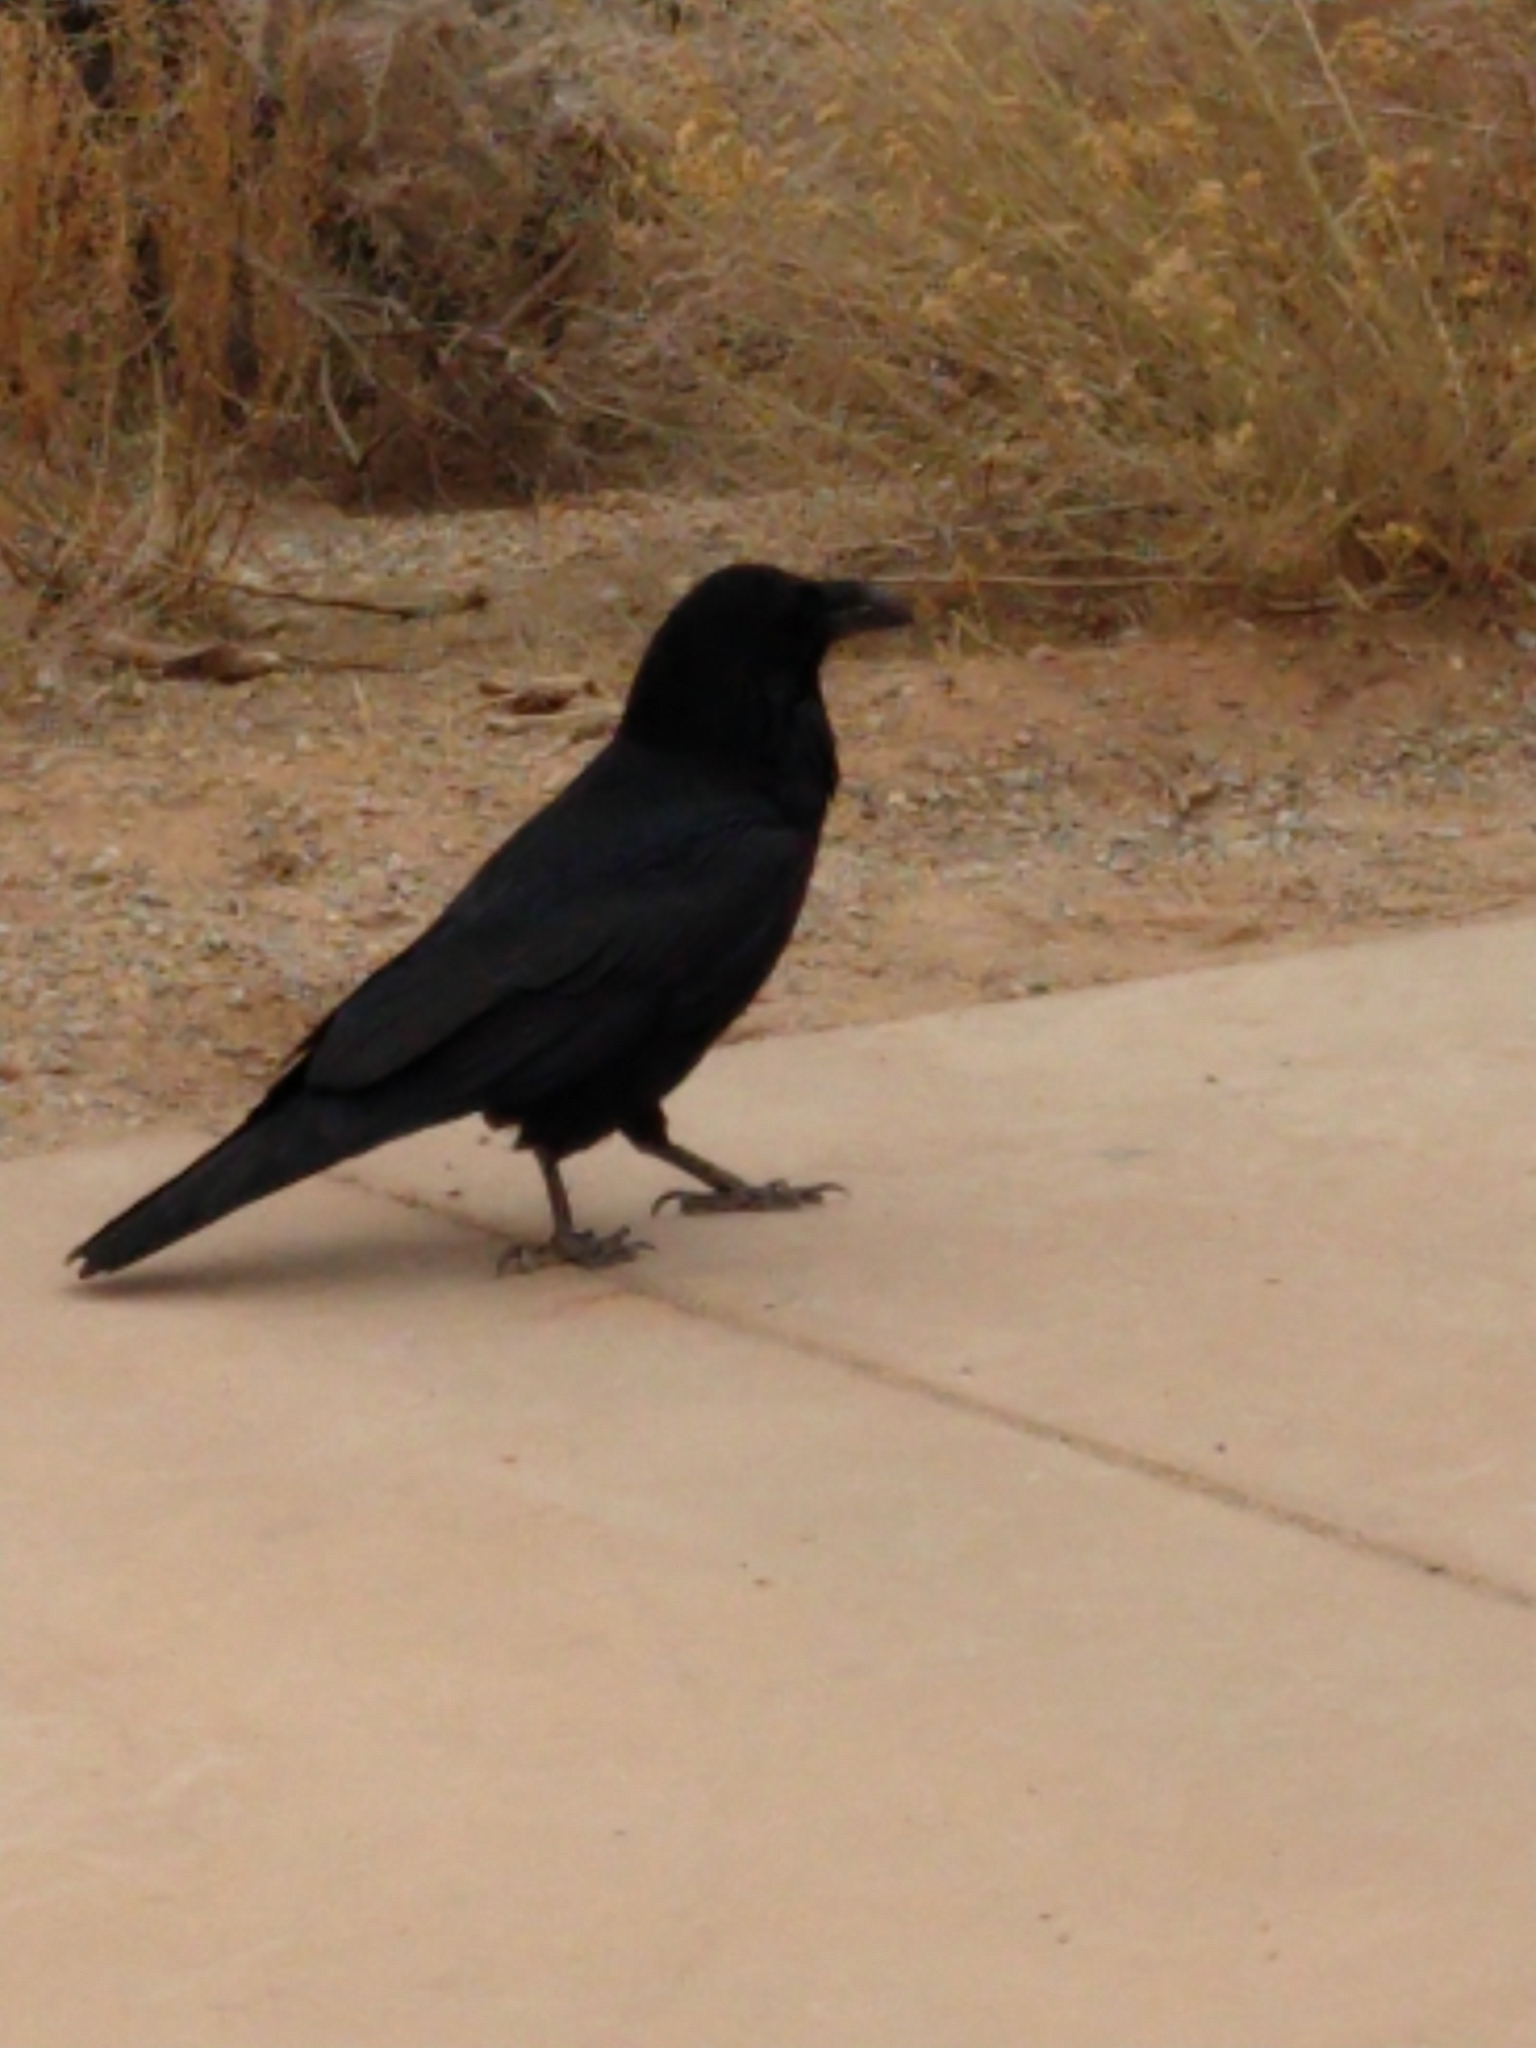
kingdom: Animalia
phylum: Chordata
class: Aves
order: Passeriformes
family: Corvidae
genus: Corvus
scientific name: Corvus corax
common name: Common raven
